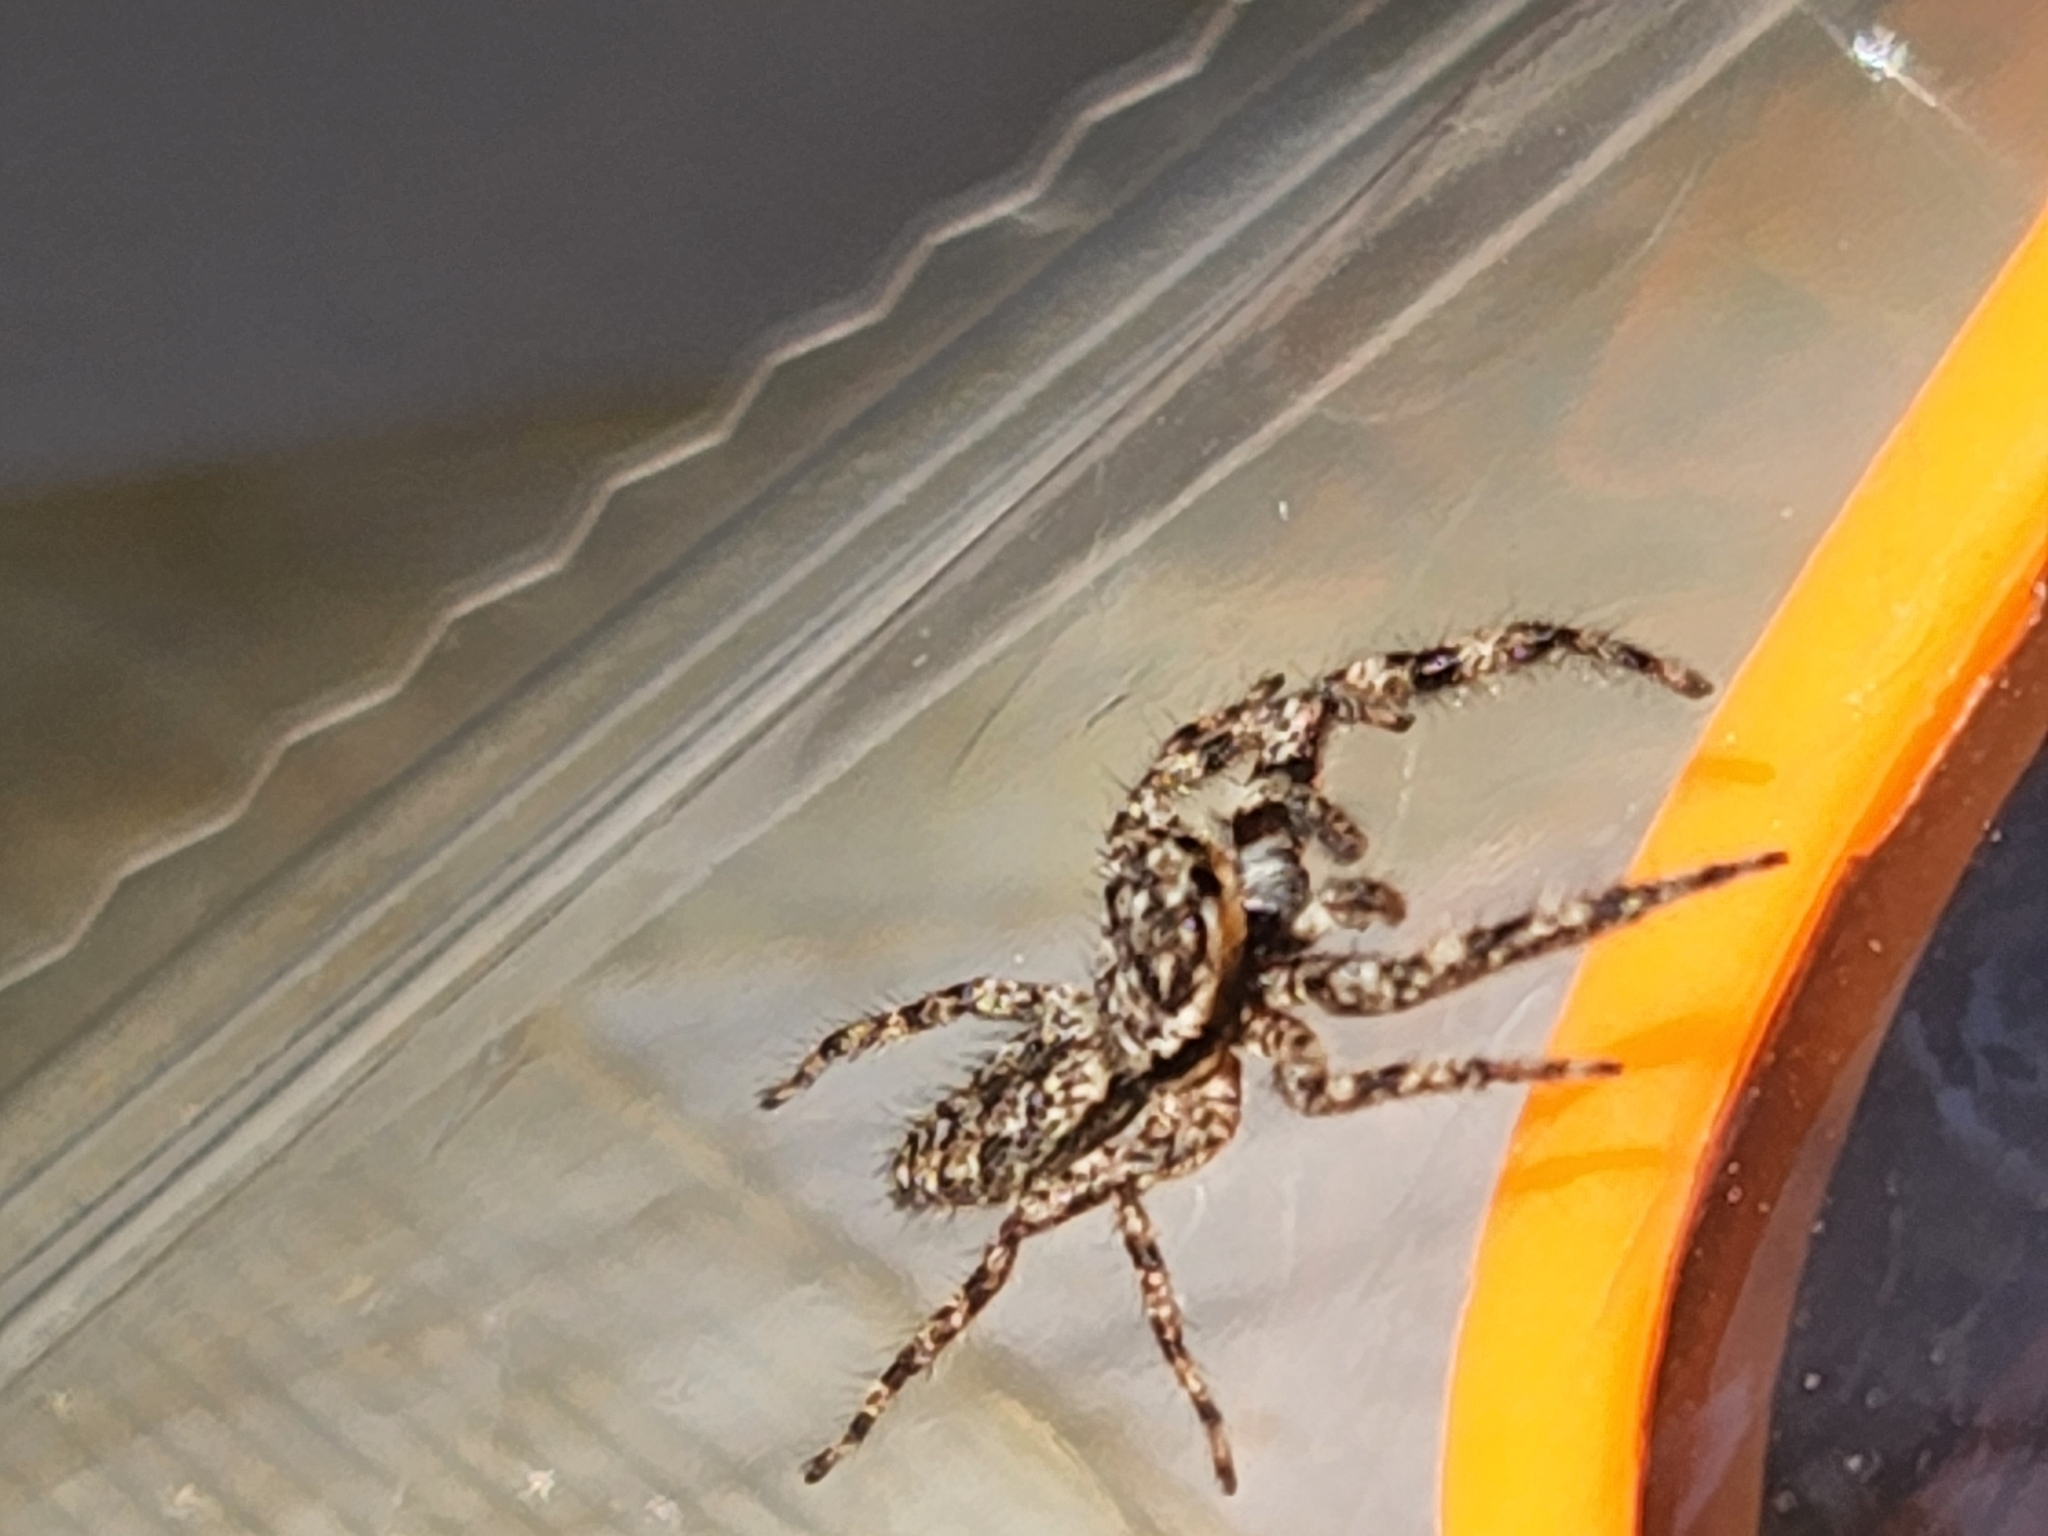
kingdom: Animalia
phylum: Arthropoda
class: Arachnida
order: Araneae
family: Salticidae
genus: Platycryptus
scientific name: Platycryptus undatus
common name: Tan jumping spider
